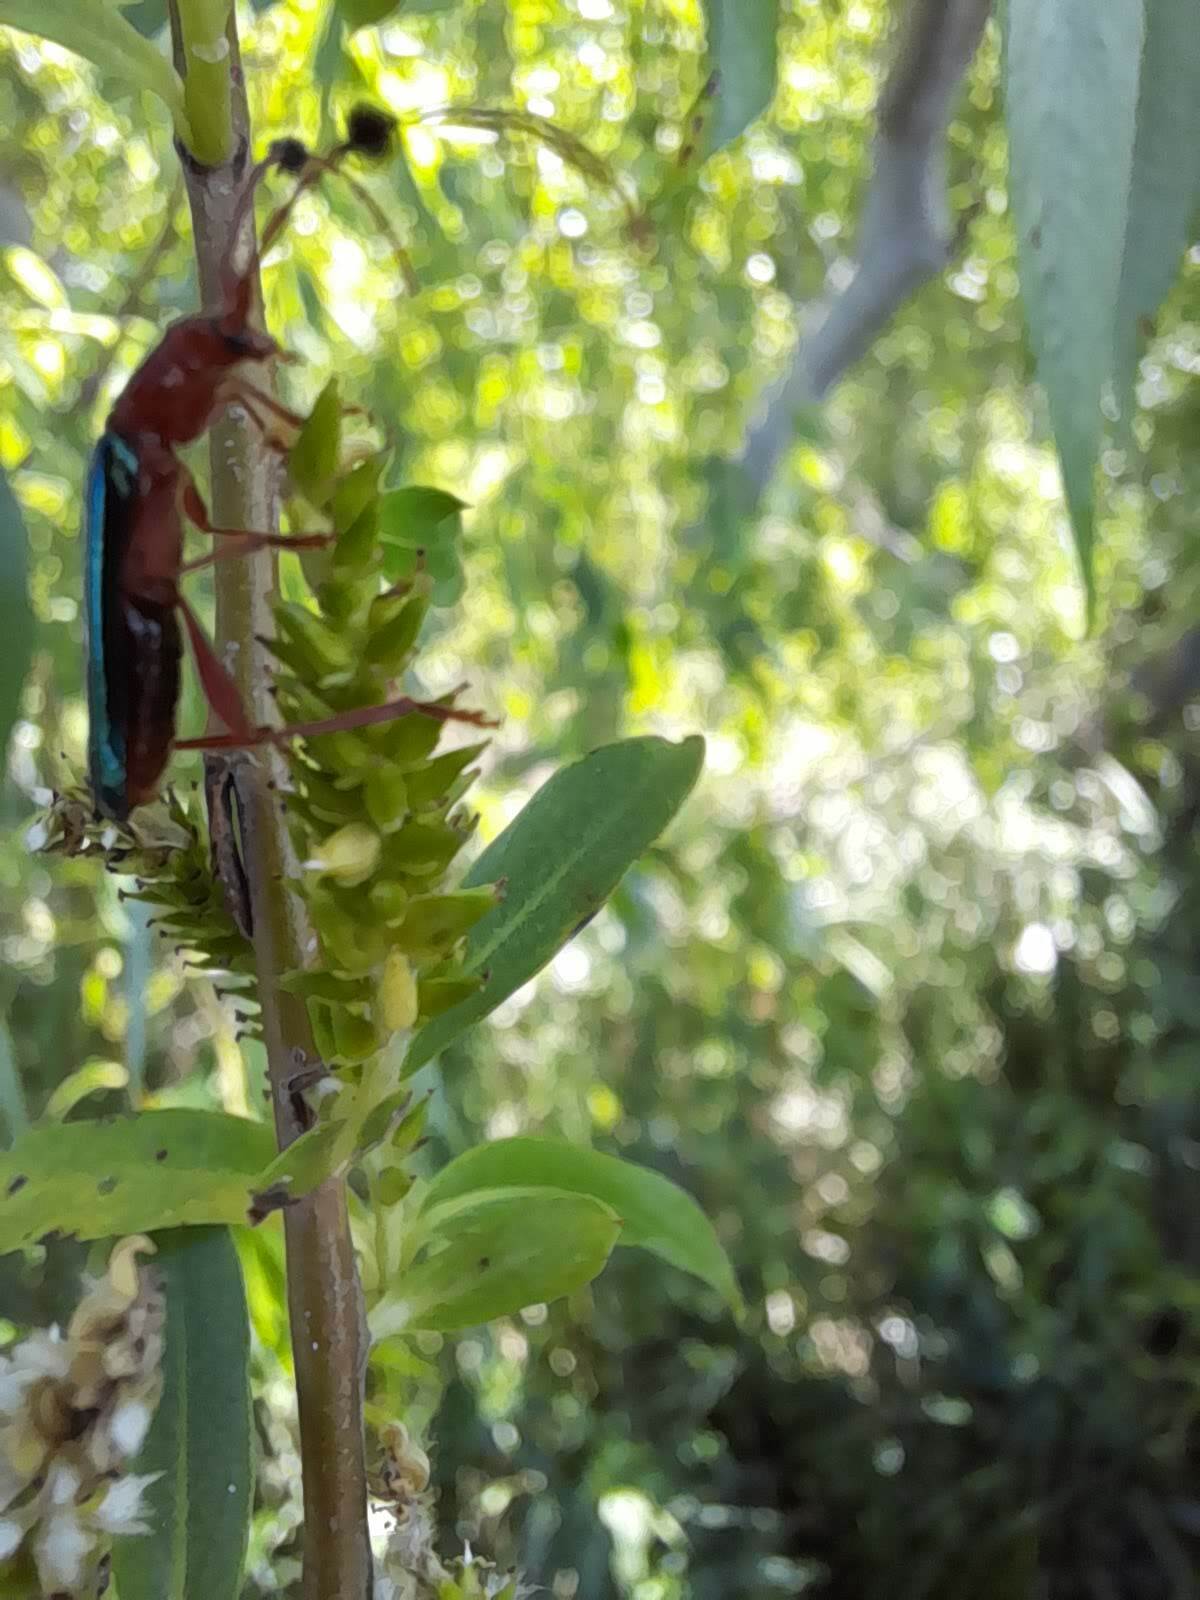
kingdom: Animalia
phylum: Arthropoda
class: Insecta
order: Coleoptera
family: Cerambycidae
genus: Paromoeocerus
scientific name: Paromoeocerus barbicornis
